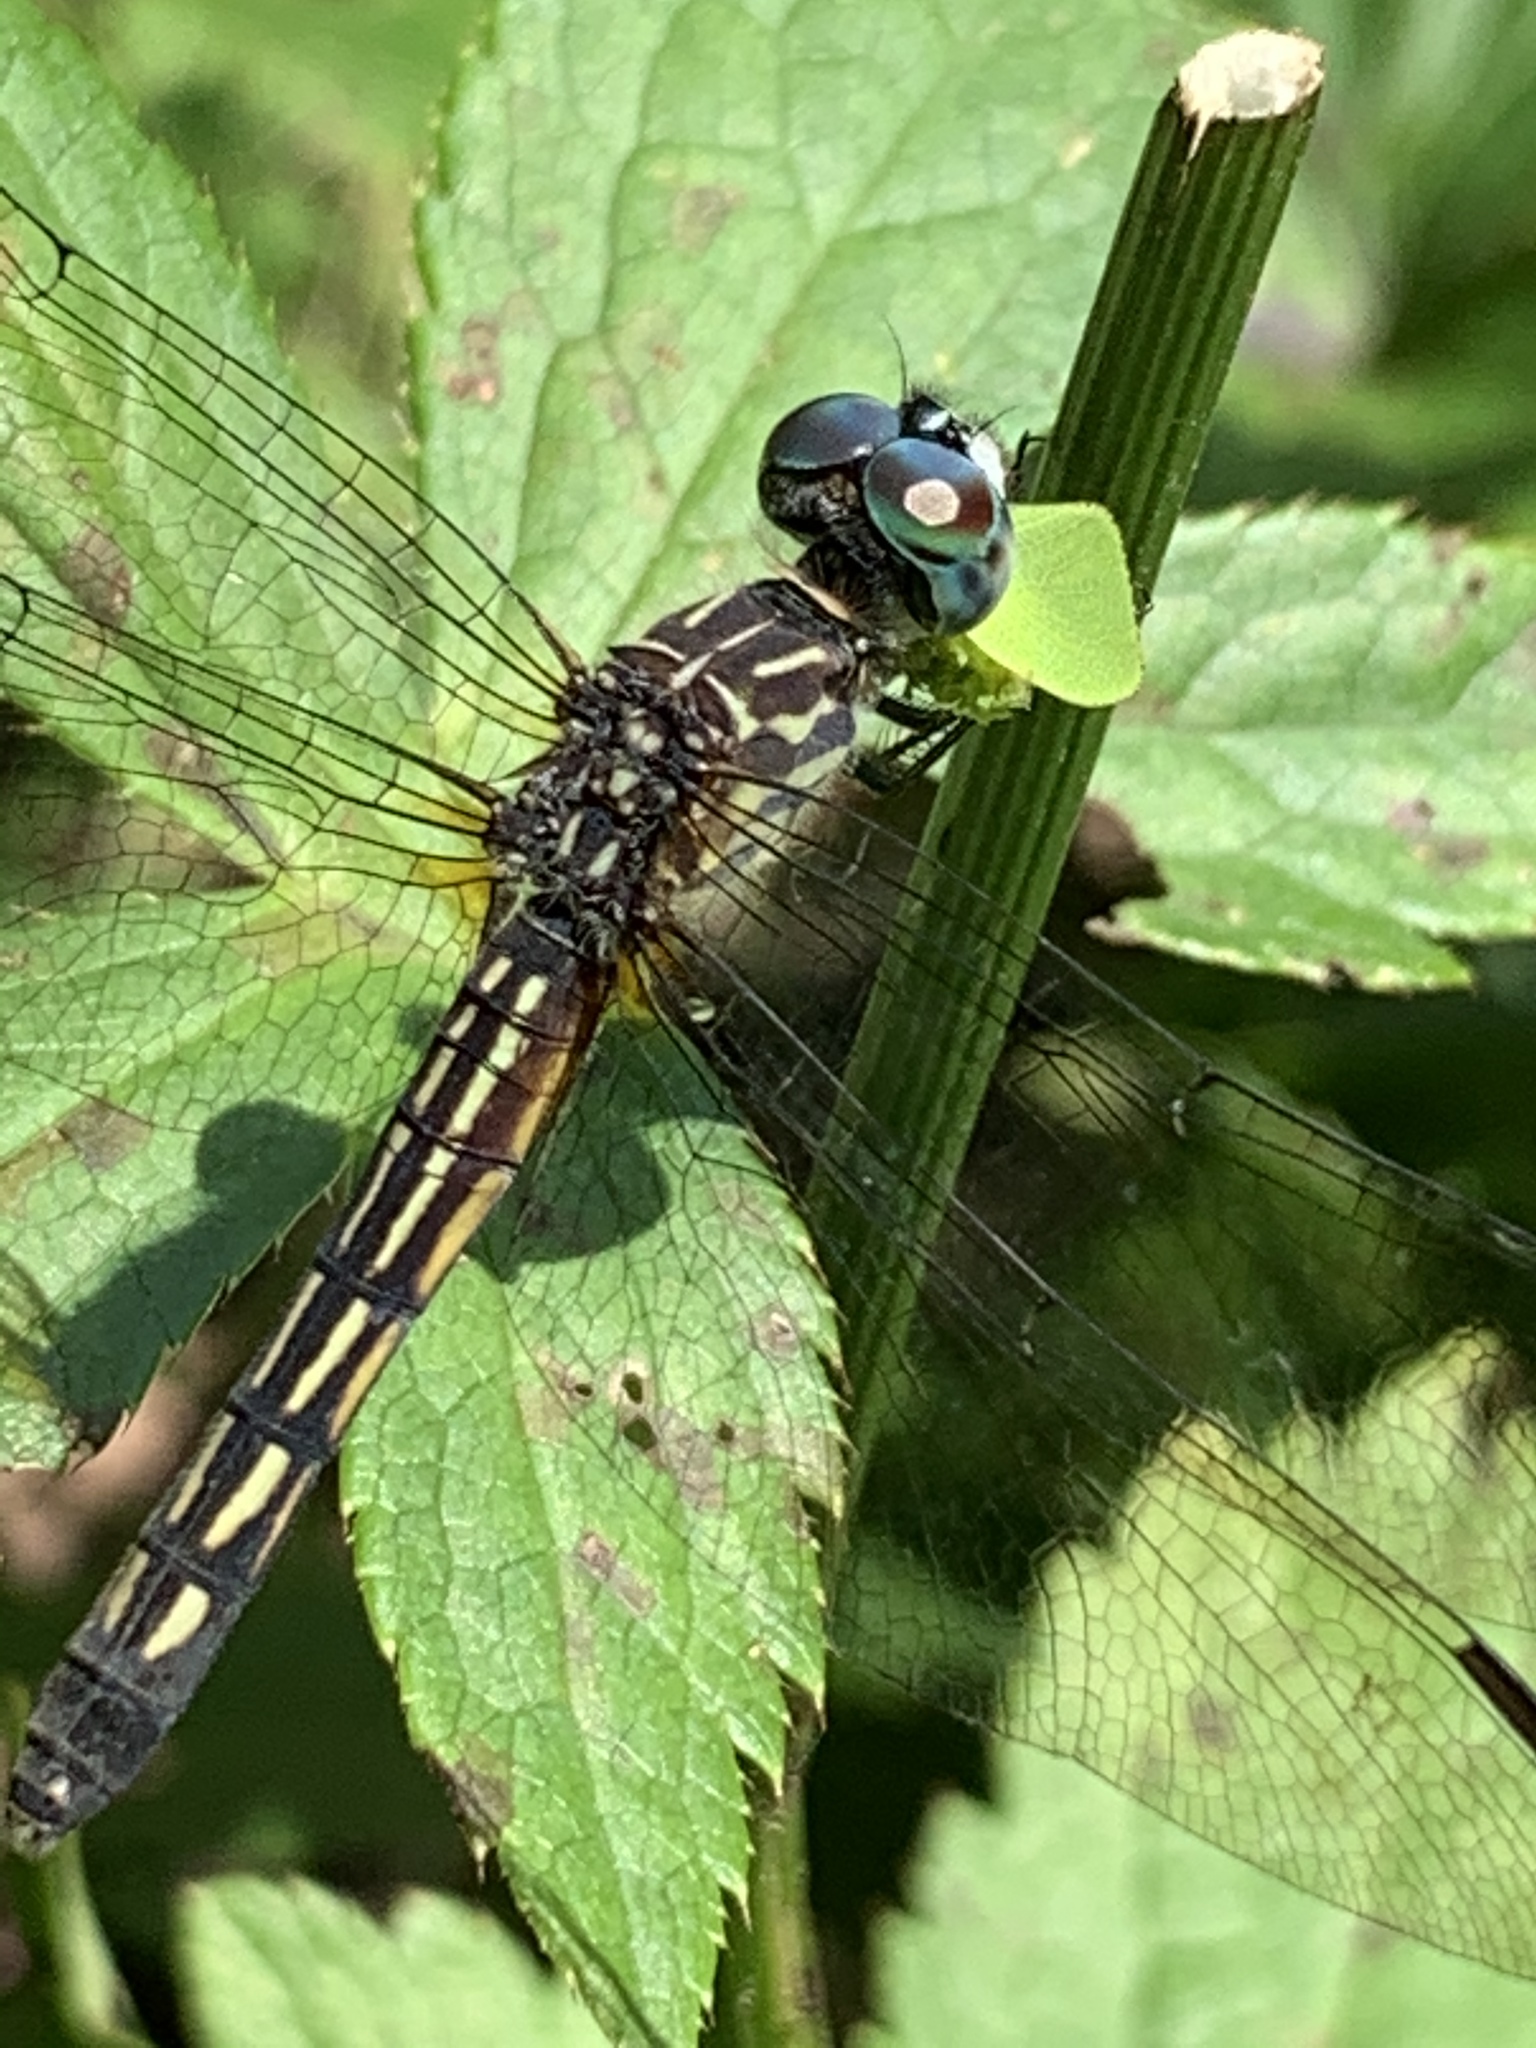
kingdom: Animalia
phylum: Arthropoda
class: Insecta
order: Odonata
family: Libellulidae
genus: Pachydiplax
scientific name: Pachydiplax longipennis
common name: Blue dasher
